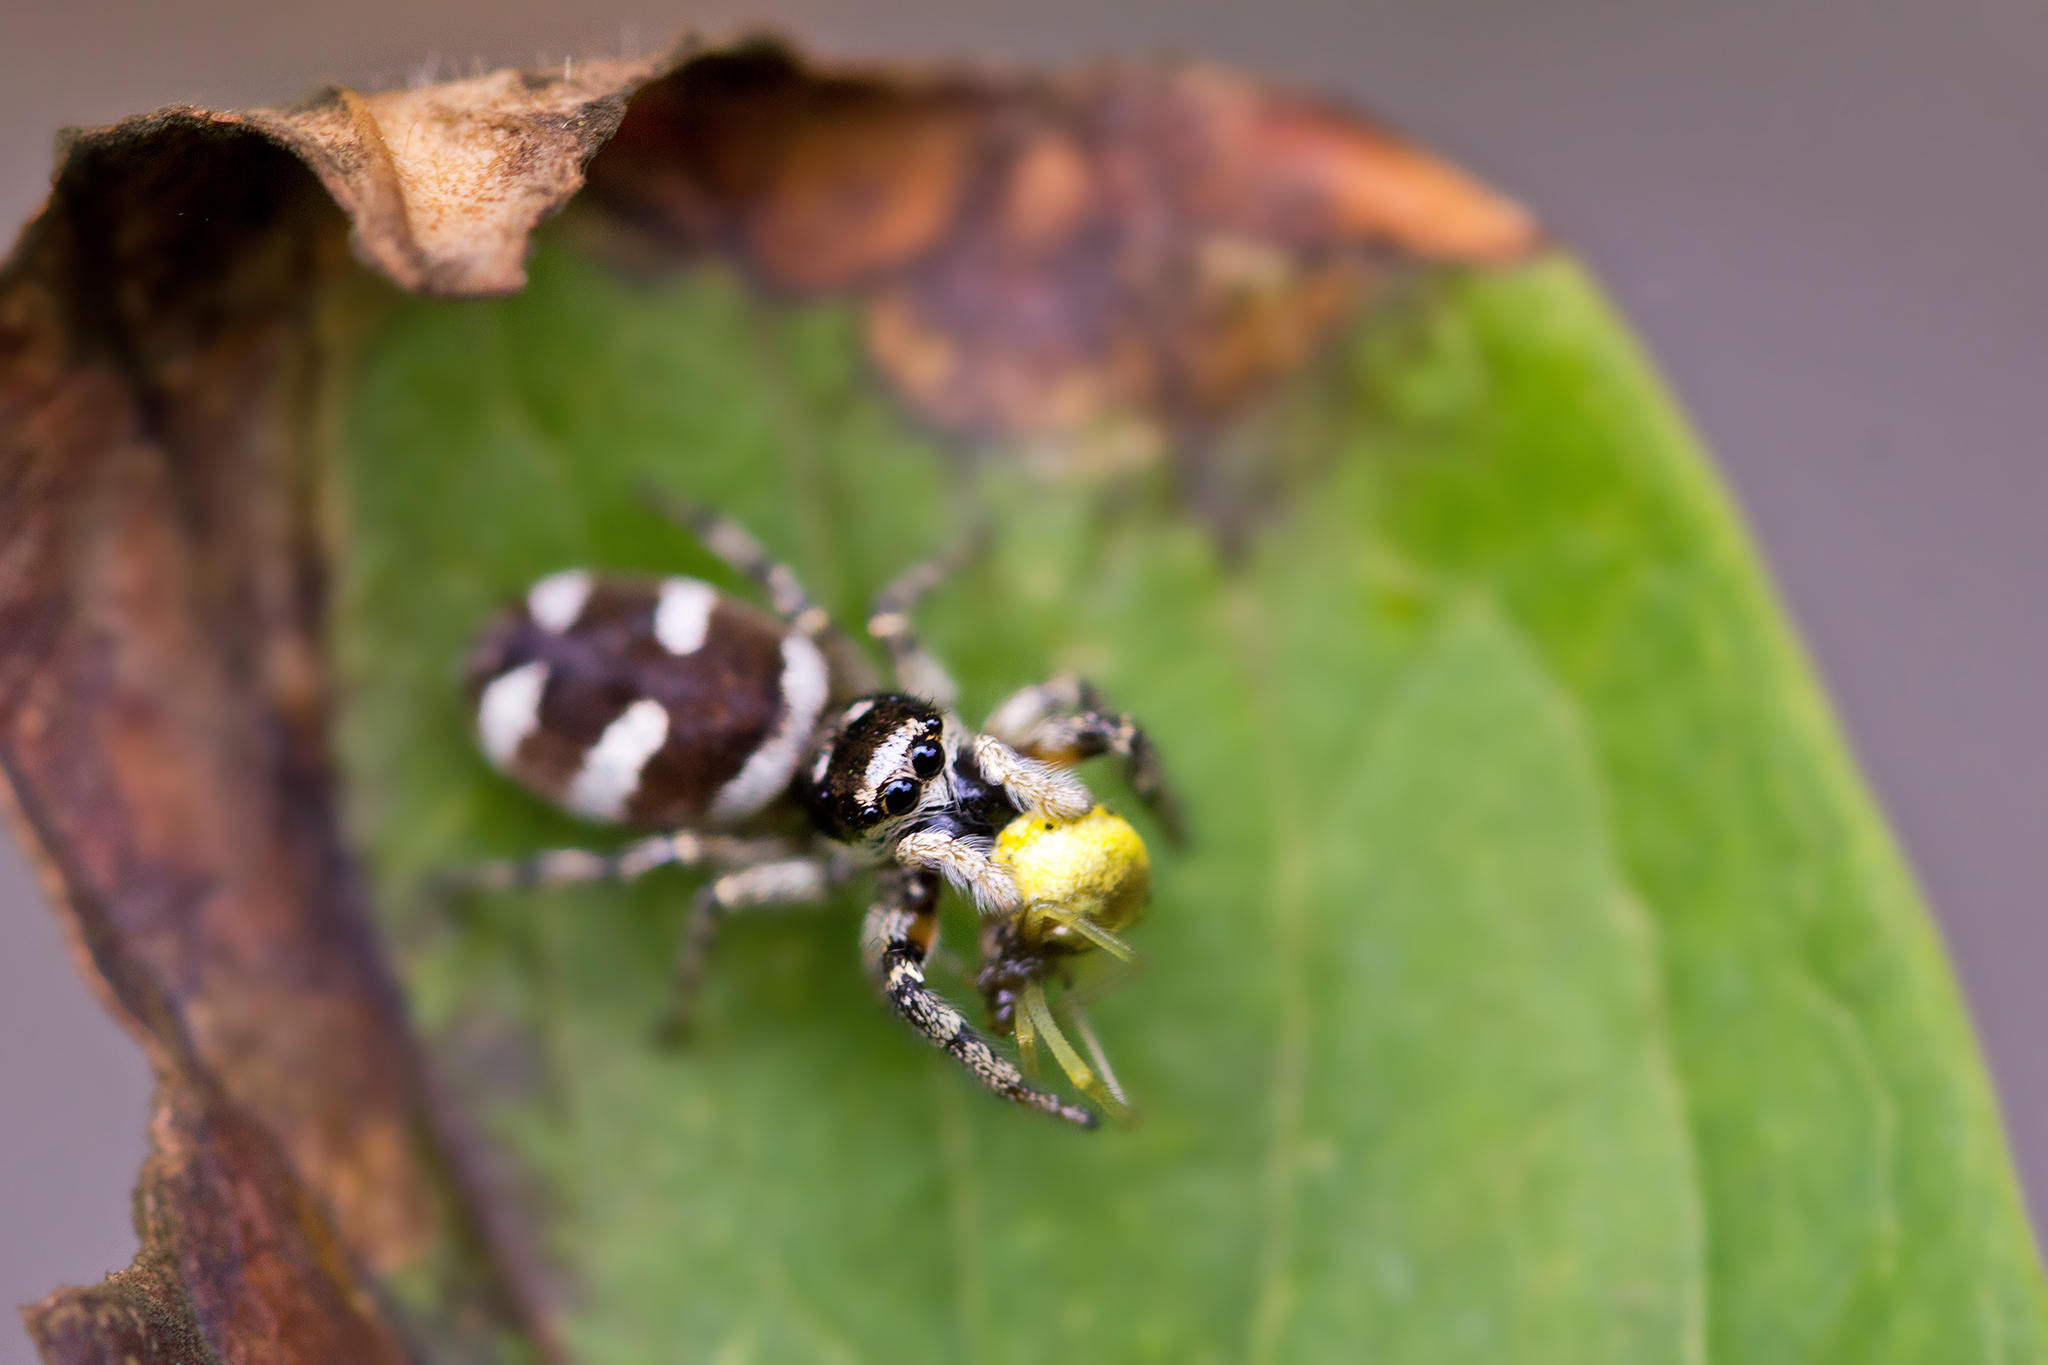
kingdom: Animalia
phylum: Arthropoda
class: Arachnida
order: Araneae
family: Salticidae
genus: Salticus
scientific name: Salticus scenicus
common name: Zebra jumper
